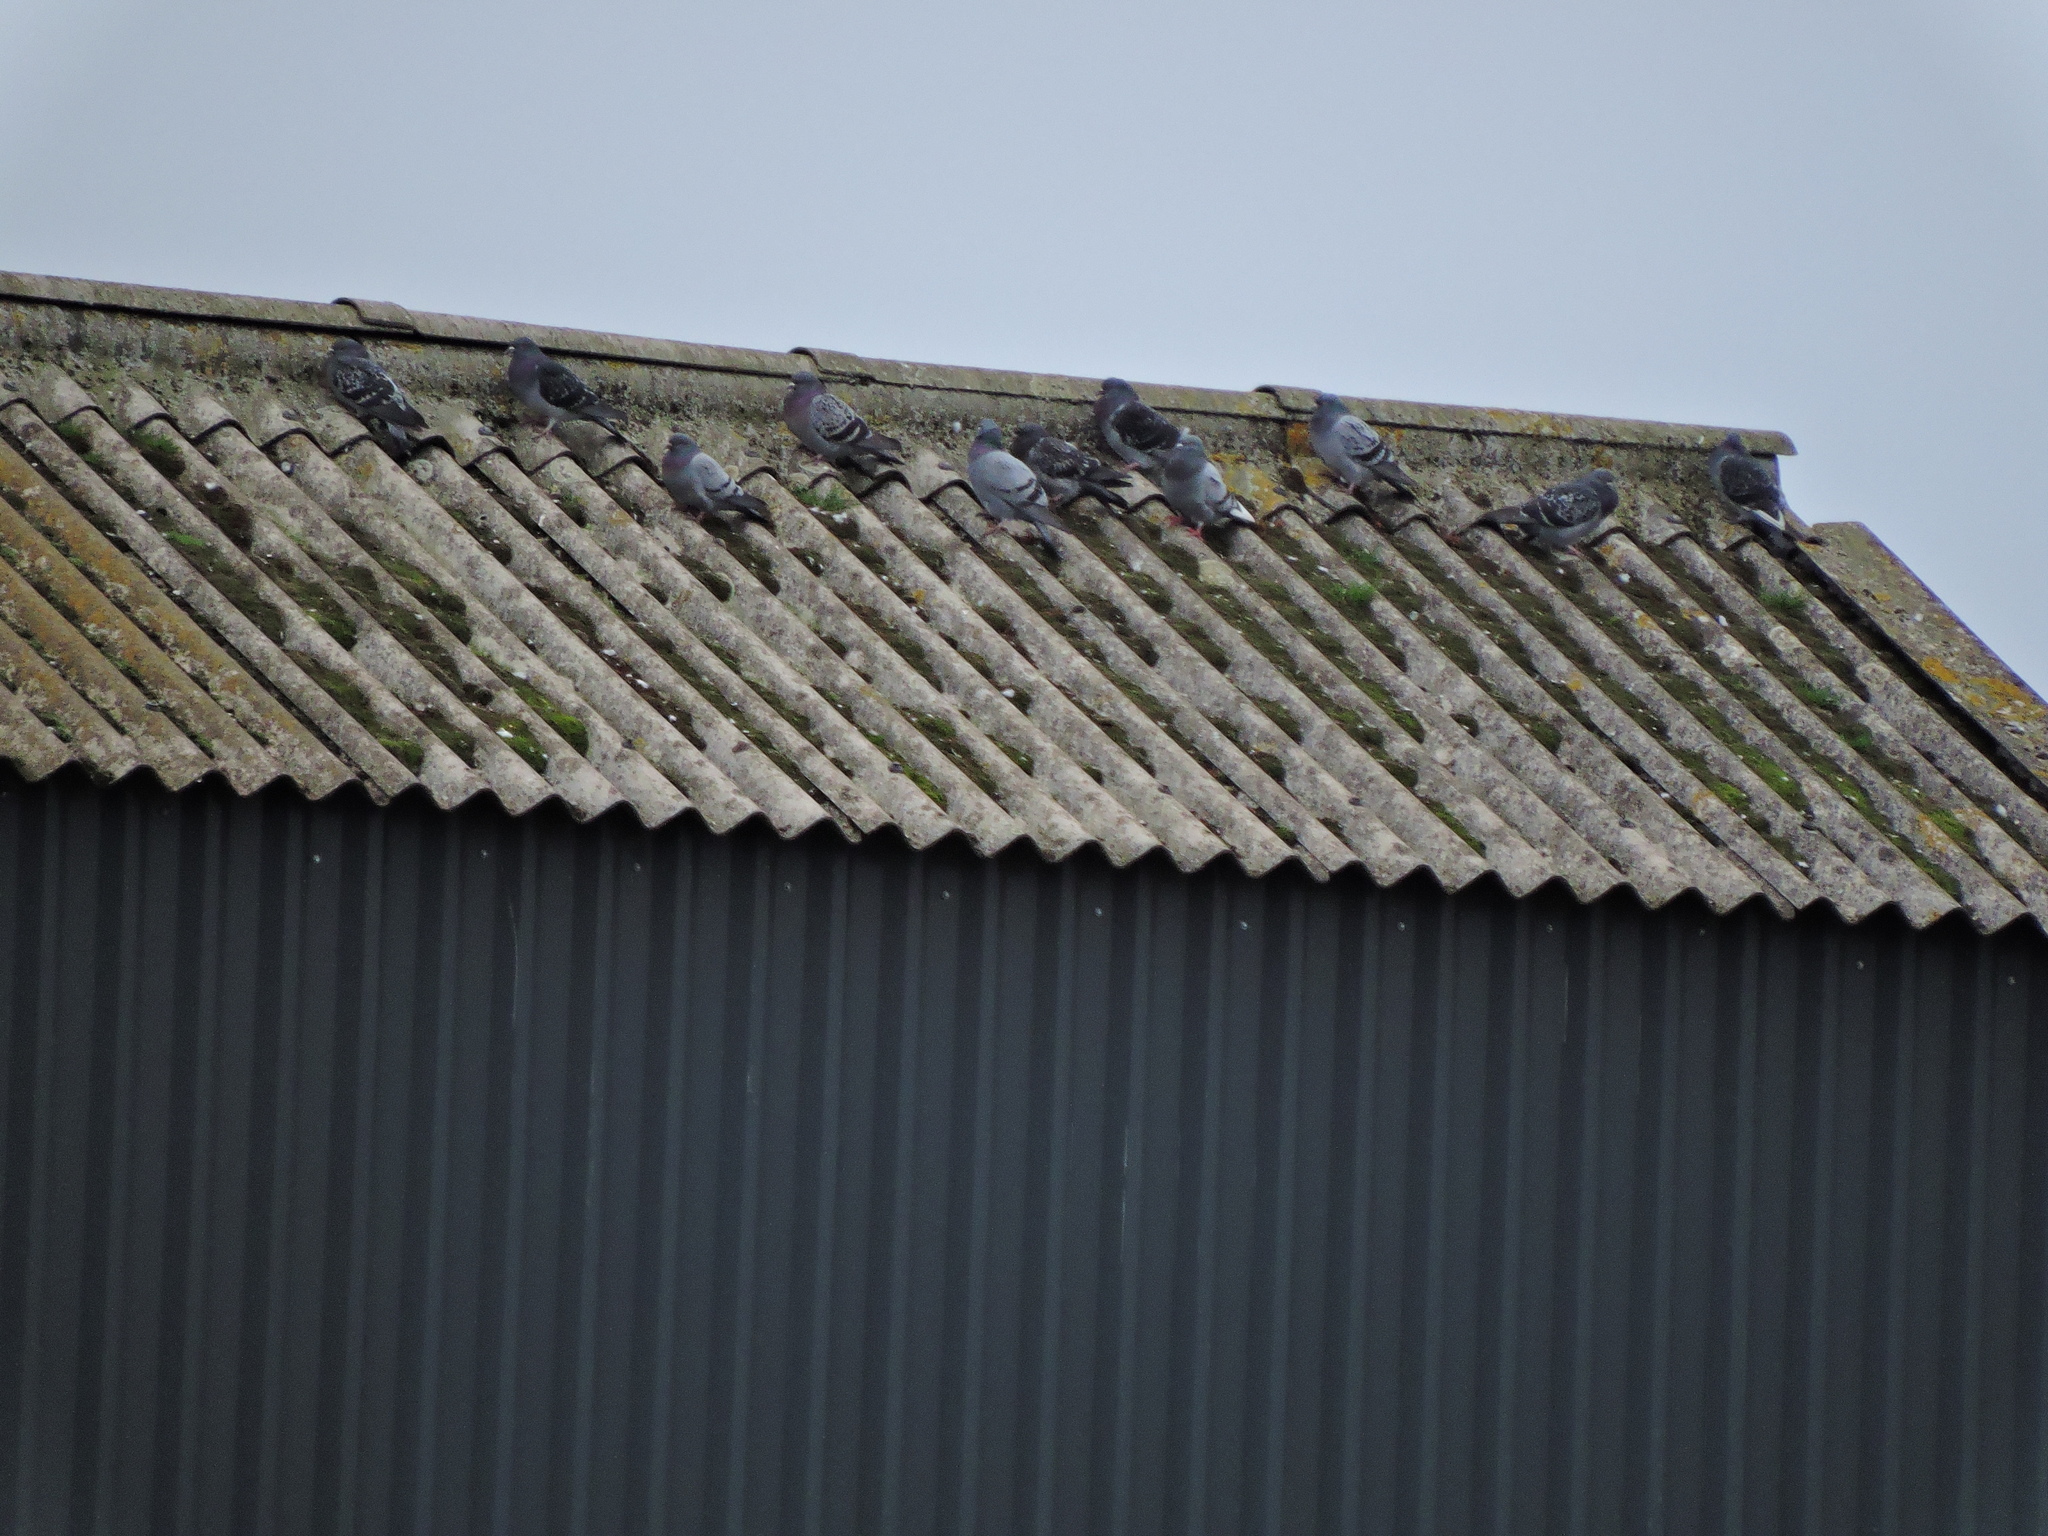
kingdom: Animalia
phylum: Chordata
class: Aves
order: Columbiformes
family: Columbidae
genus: Columba
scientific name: Columba livia
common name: Rock pigeon
